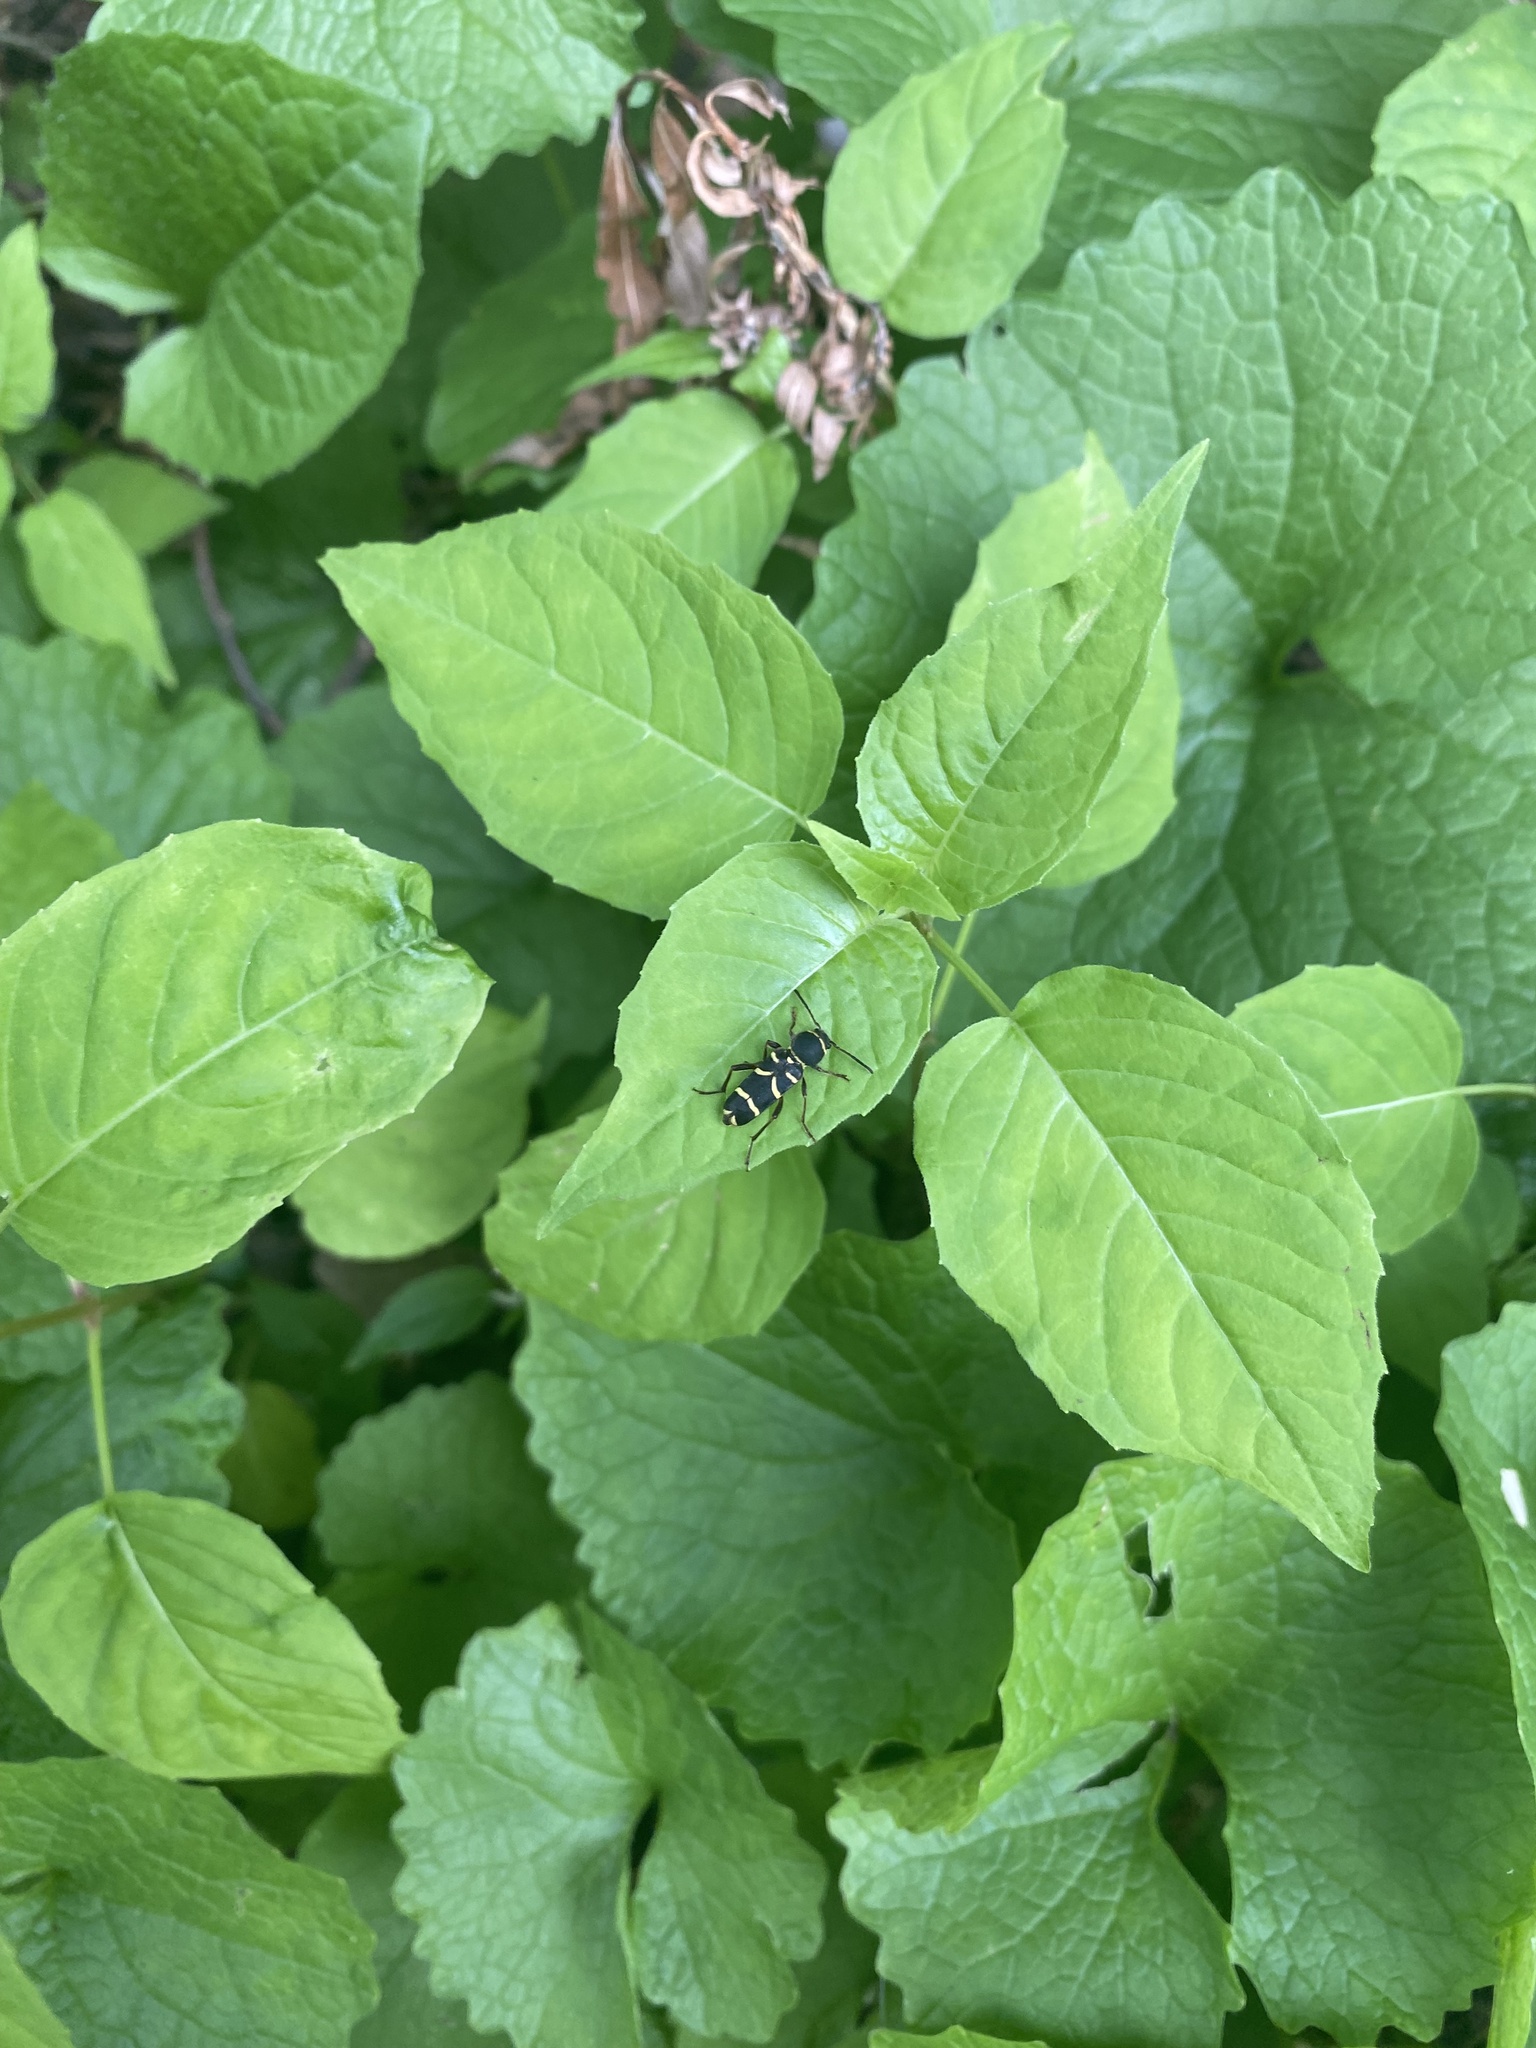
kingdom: Animalia
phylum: Arthropoda
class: Insecta
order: Coleoptera
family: Cerambycidae
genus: Clytus
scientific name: Clytus marginicollis
